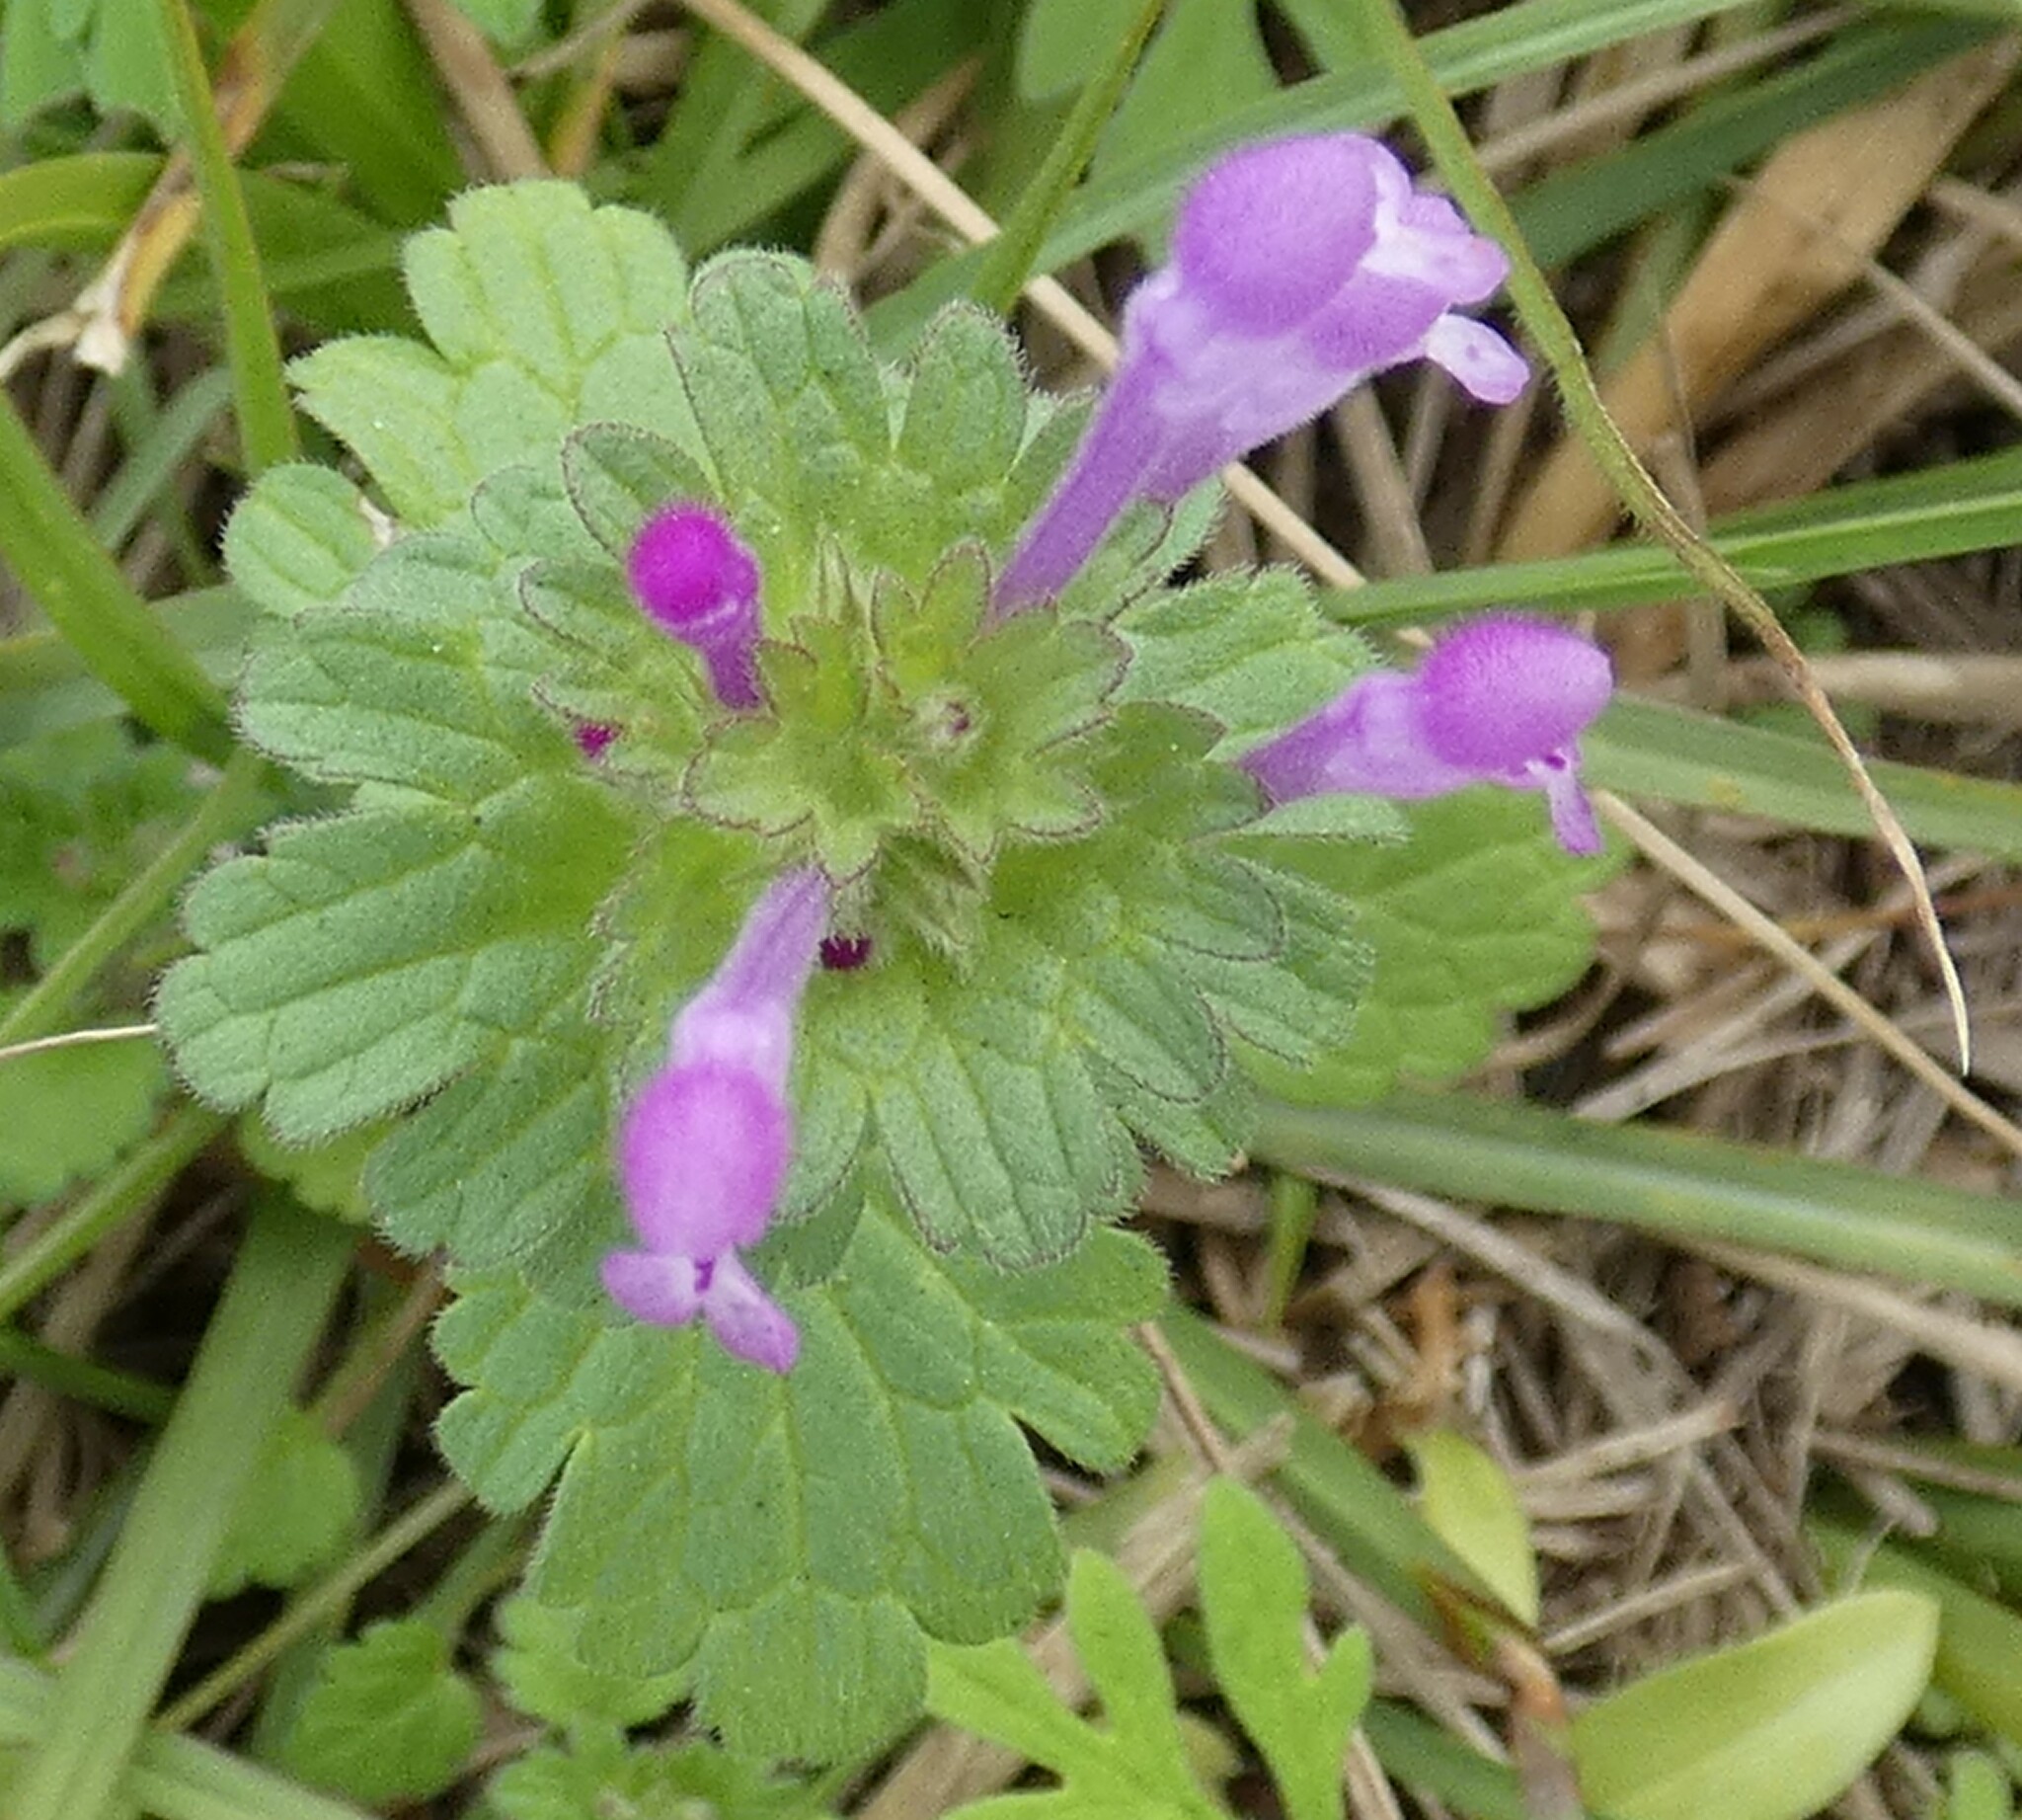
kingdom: Plantae
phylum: Tracheophyta
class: Magnoliopsida
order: Lamiales
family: Lamiaceae
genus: Lamium
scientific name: Lamium amplexicaule
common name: Henbit dead-nettle
